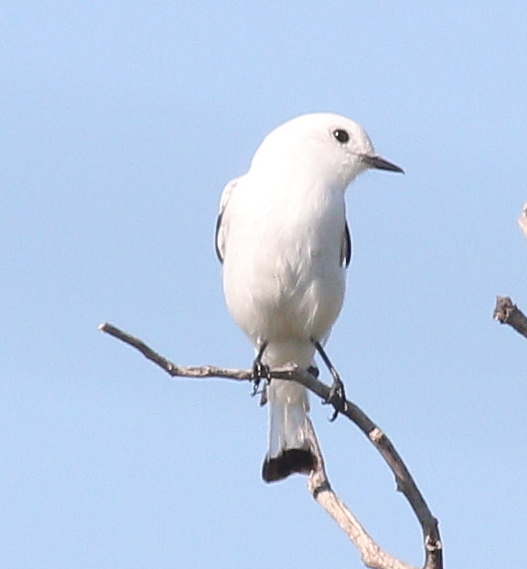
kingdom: Animalia
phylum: Chordata
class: Aves
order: Passeriformes
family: Tyrannidae
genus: Xolmis
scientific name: Xolmis irupero
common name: White monjita
